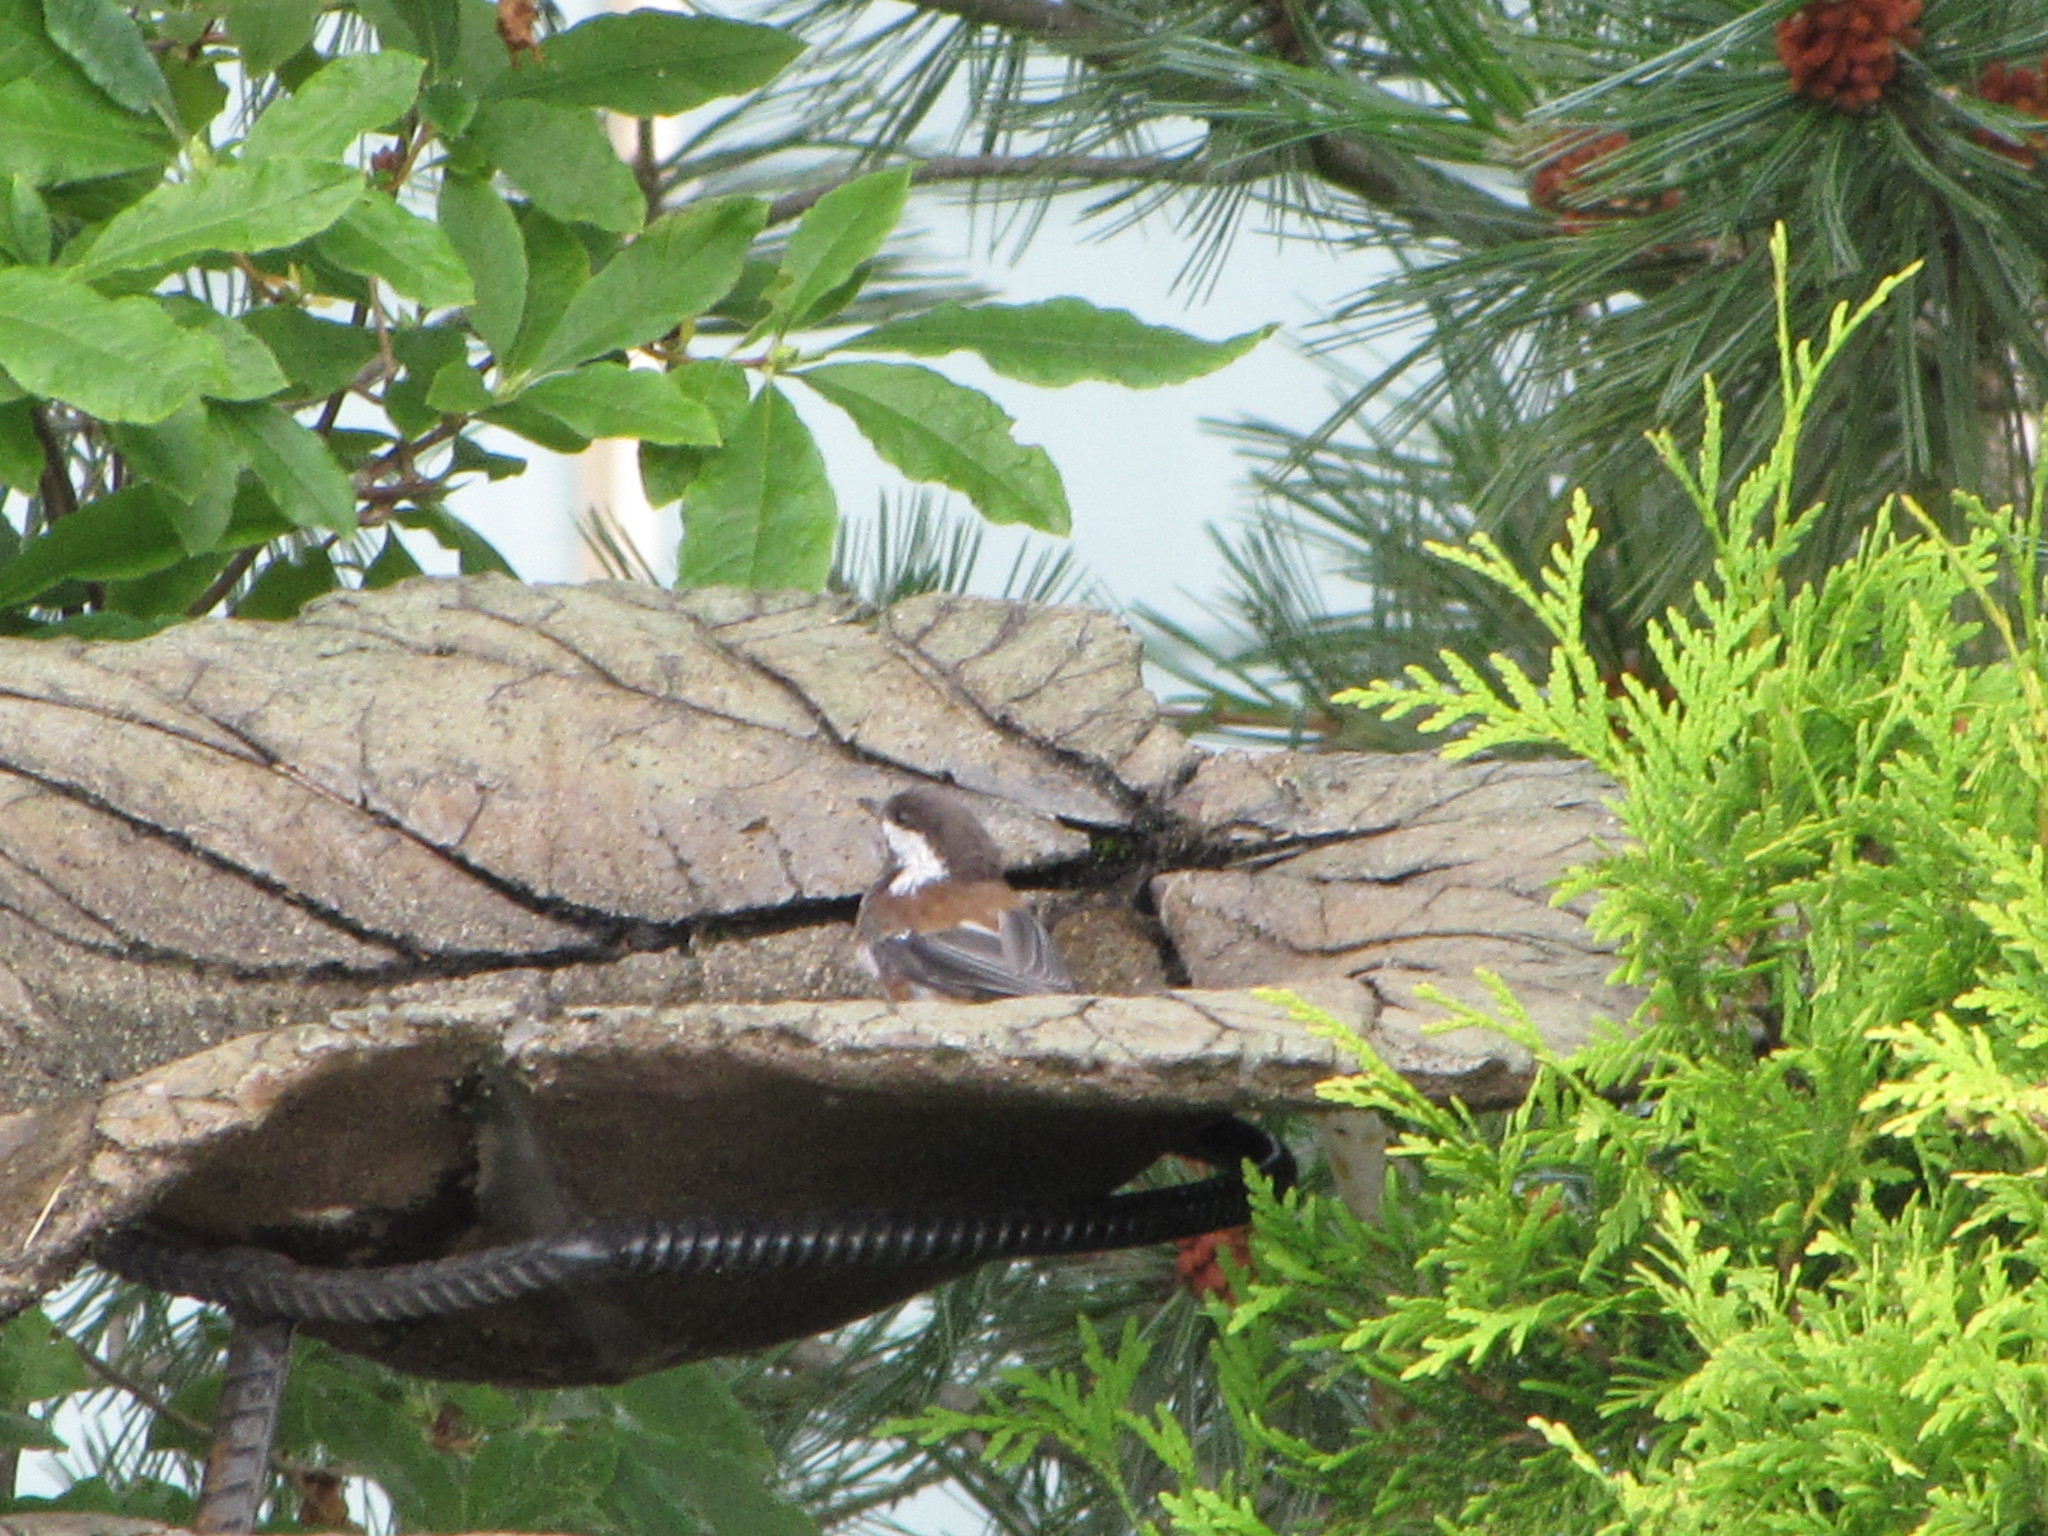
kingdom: Animalia
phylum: Chordata
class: Aves
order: Passeriformes
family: Paridae
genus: Poecile
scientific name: Poecile rufescens
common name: Chestnut-backed chickadee
